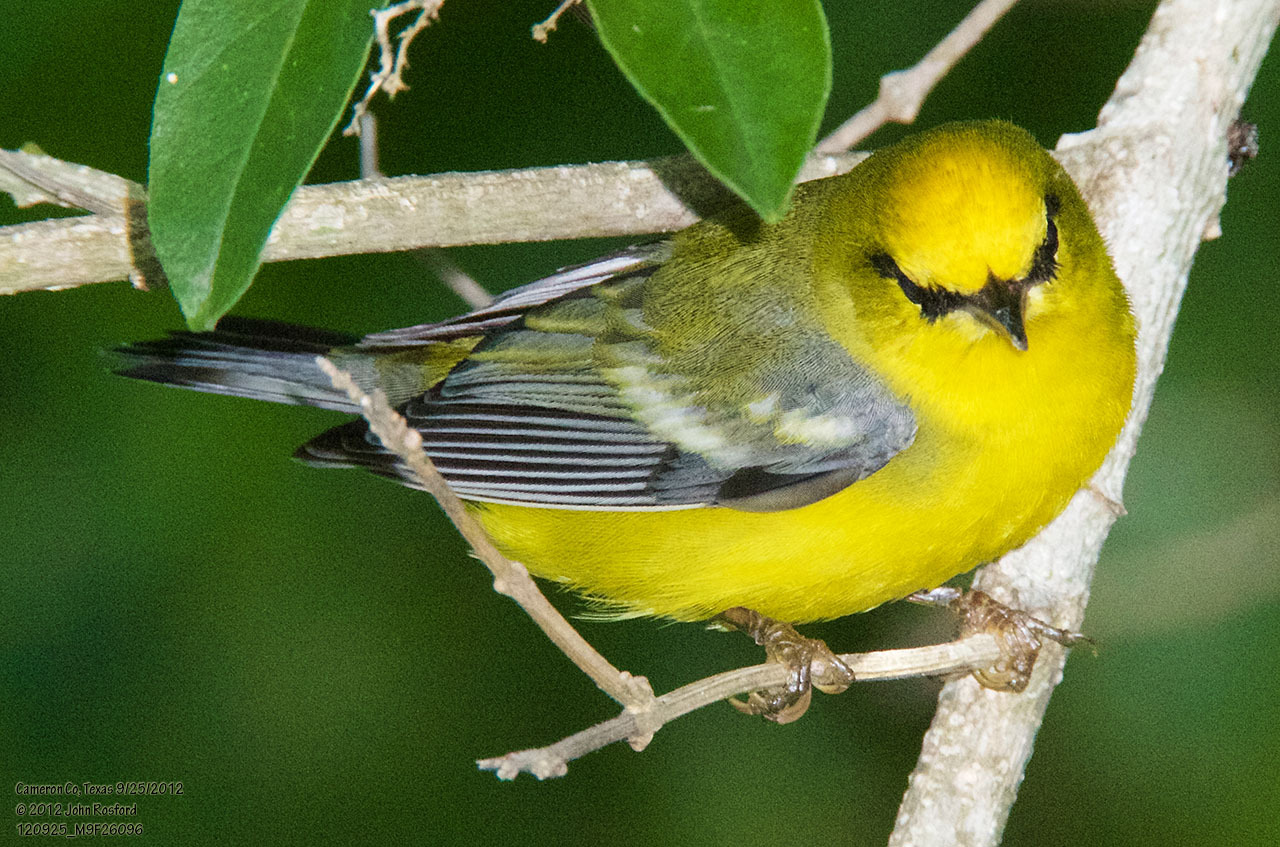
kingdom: Animalia
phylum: Chordata
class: Aves
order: Passeriformes
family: Parulidae
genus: Vermivora
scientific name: Vermivora cyanoptera
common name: Blue-winged warbler
